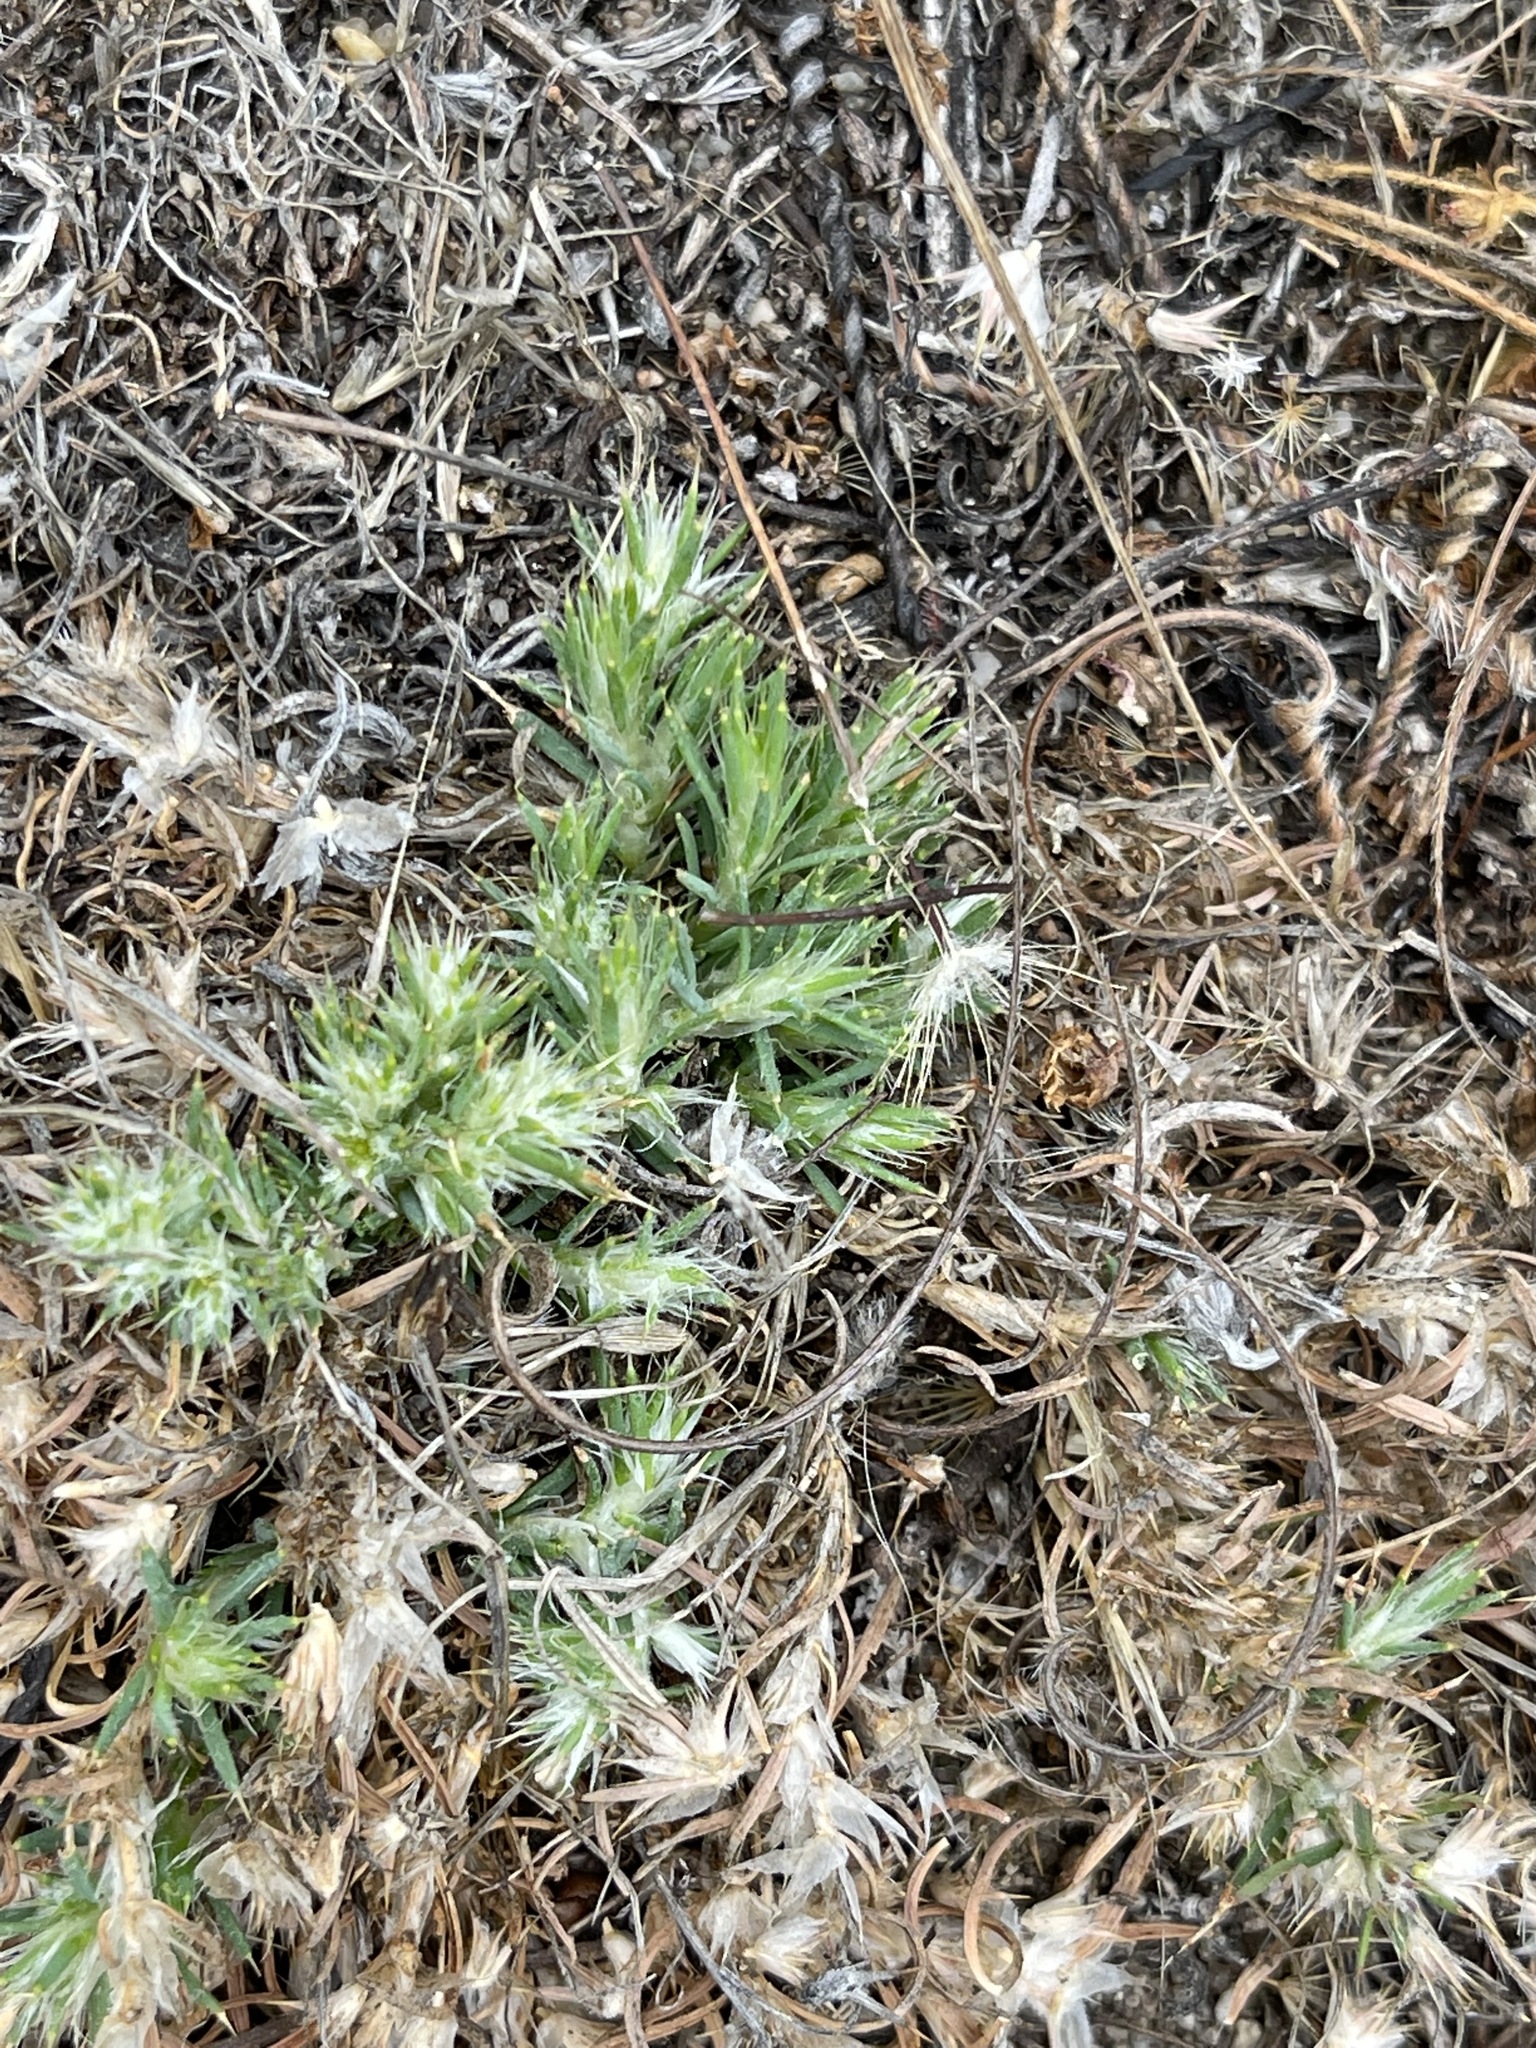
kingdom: Plantae
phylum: Tracheophyta
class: Magnoliopsida
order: Caryophyllales
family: Caryophyllaceae
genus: Cardionema
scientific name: Cardionema ramosissima
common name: Sandcarpet
